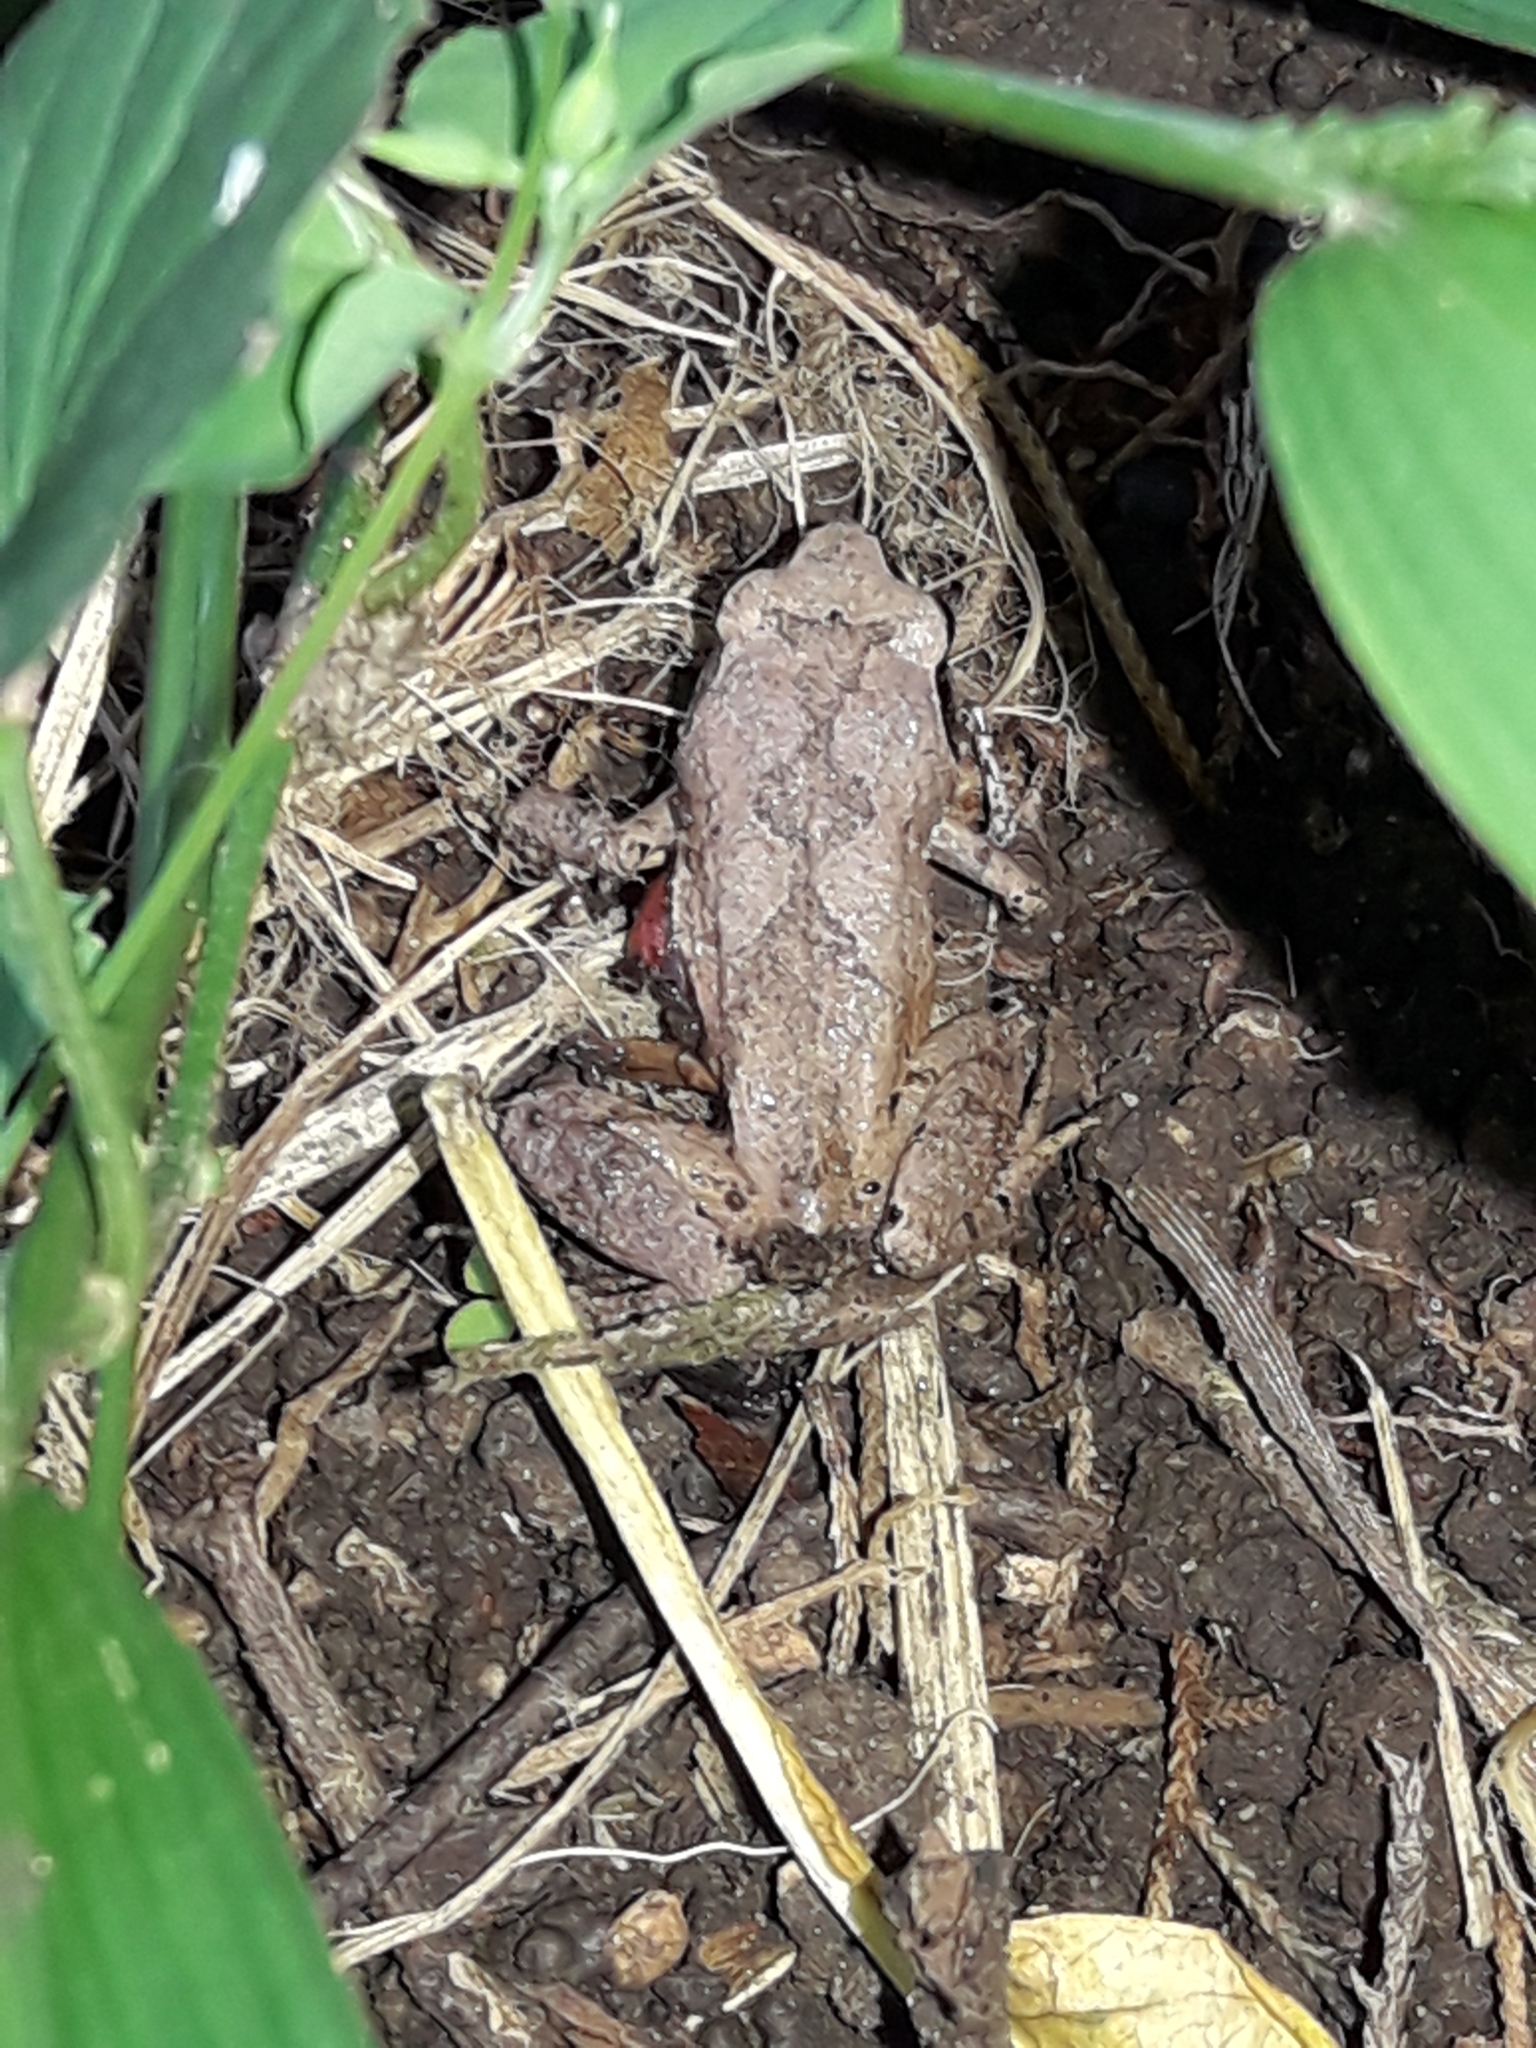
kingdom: Animalia
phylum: Chordata
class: Amphibia
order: Anura
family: Arthroleptidae
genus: Arthroleptis
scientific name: Arthroleptis wahlbergii
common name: Bush squeaker
